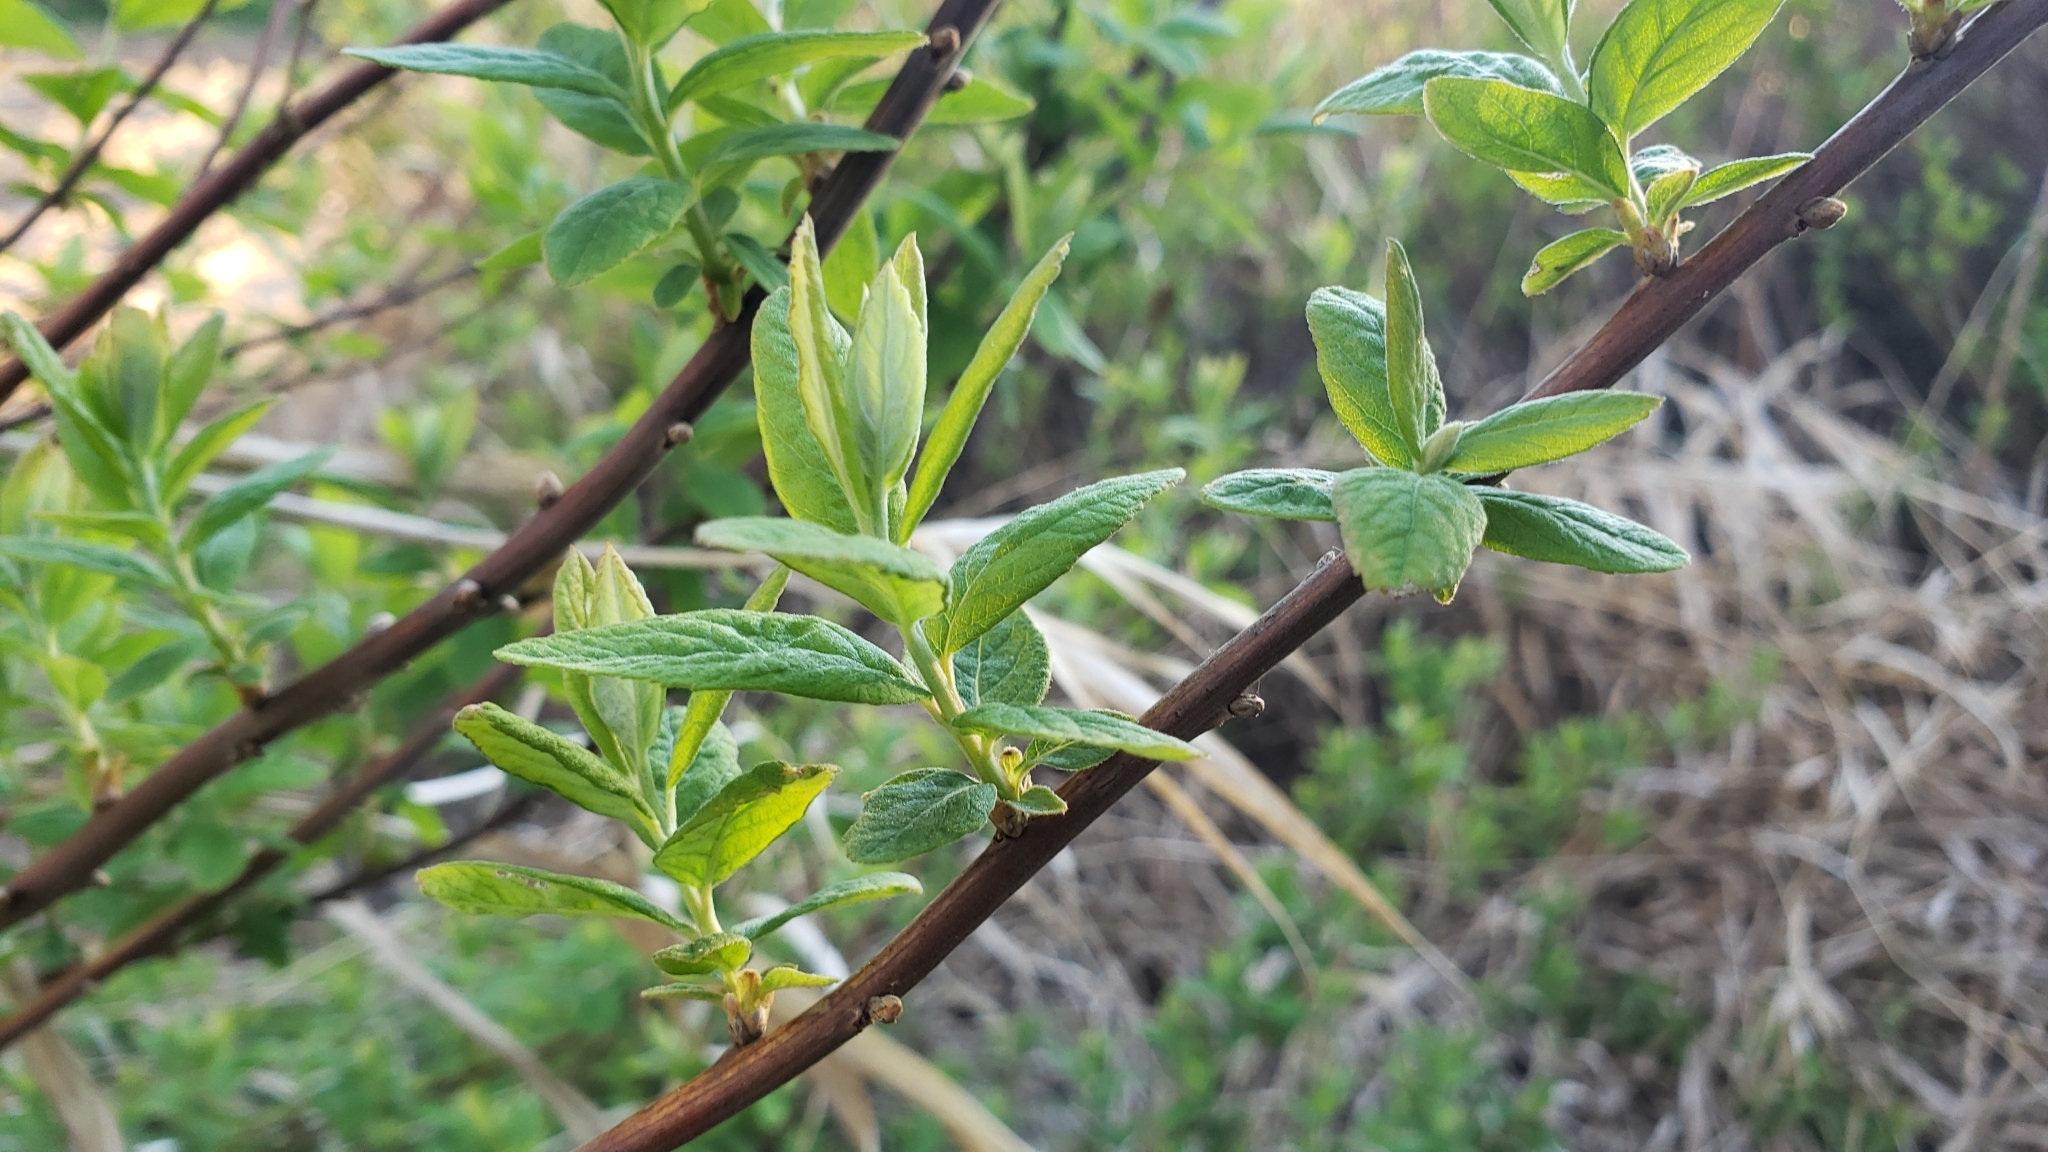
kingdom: Plantae
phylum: Tracheophyta
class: Magnoliopsida
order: Rosales
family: Rosaceae
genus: Spiraea
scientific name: Spiraea douglasii
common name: Steeplebush
